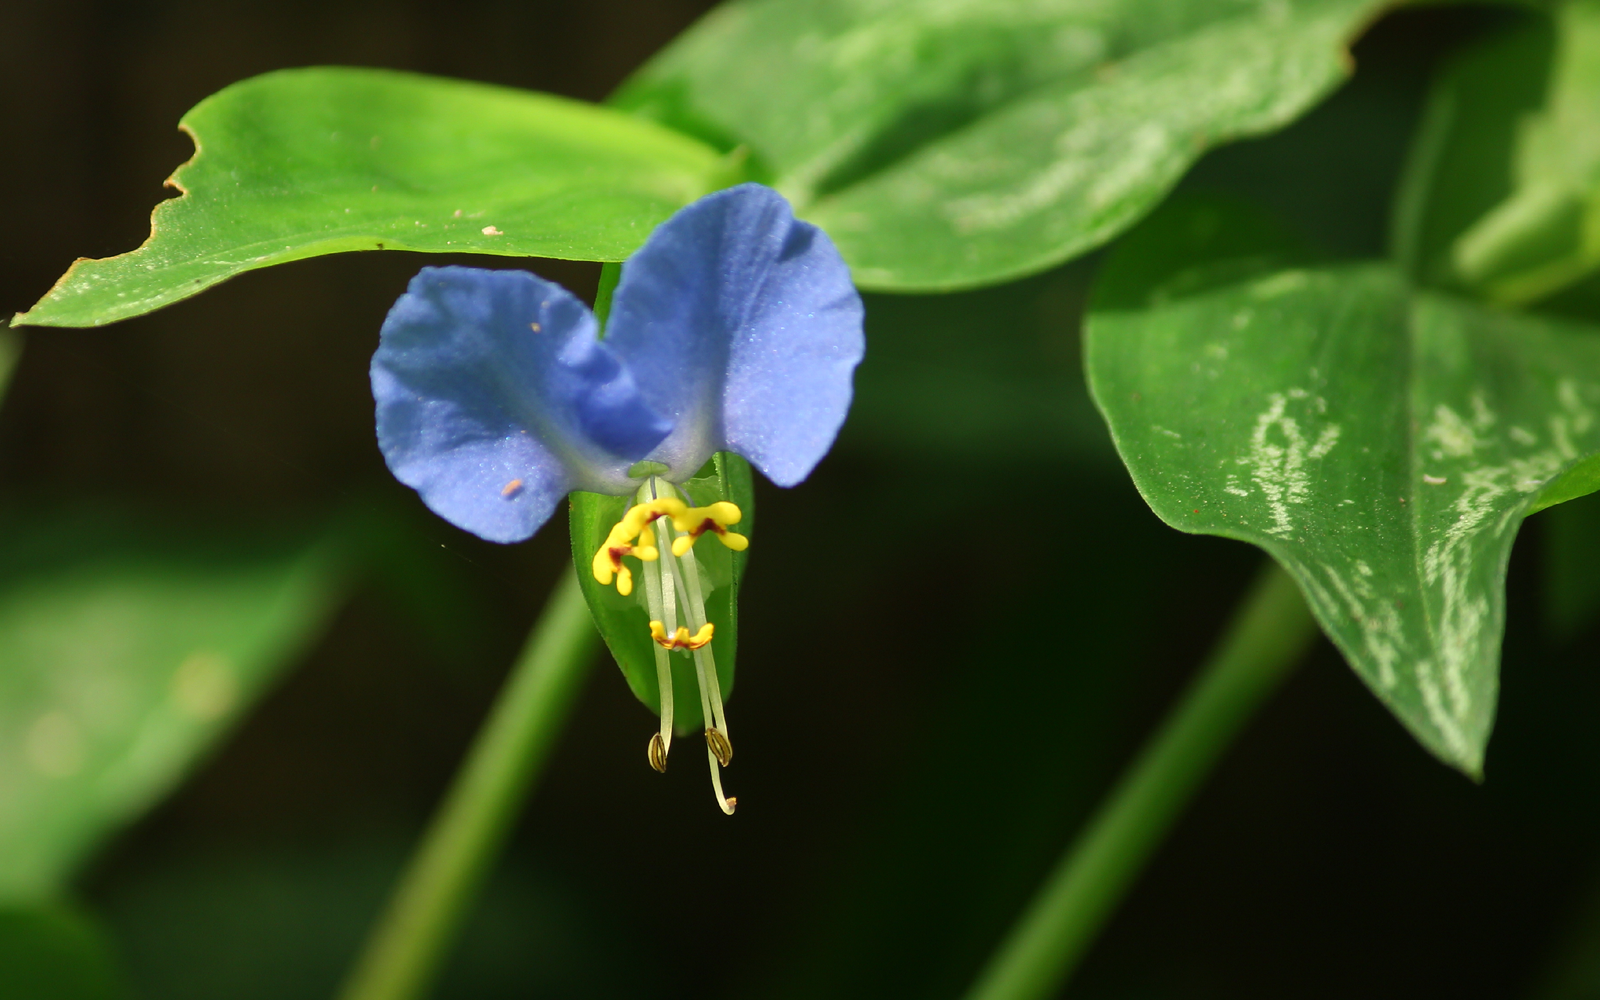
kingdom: Plantae
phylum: Tracheophyta
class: Liliopsida
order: Commelinales
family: Commelinaceae
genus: Commelina
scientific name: Commelina communis
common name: Asiatic dayflower
